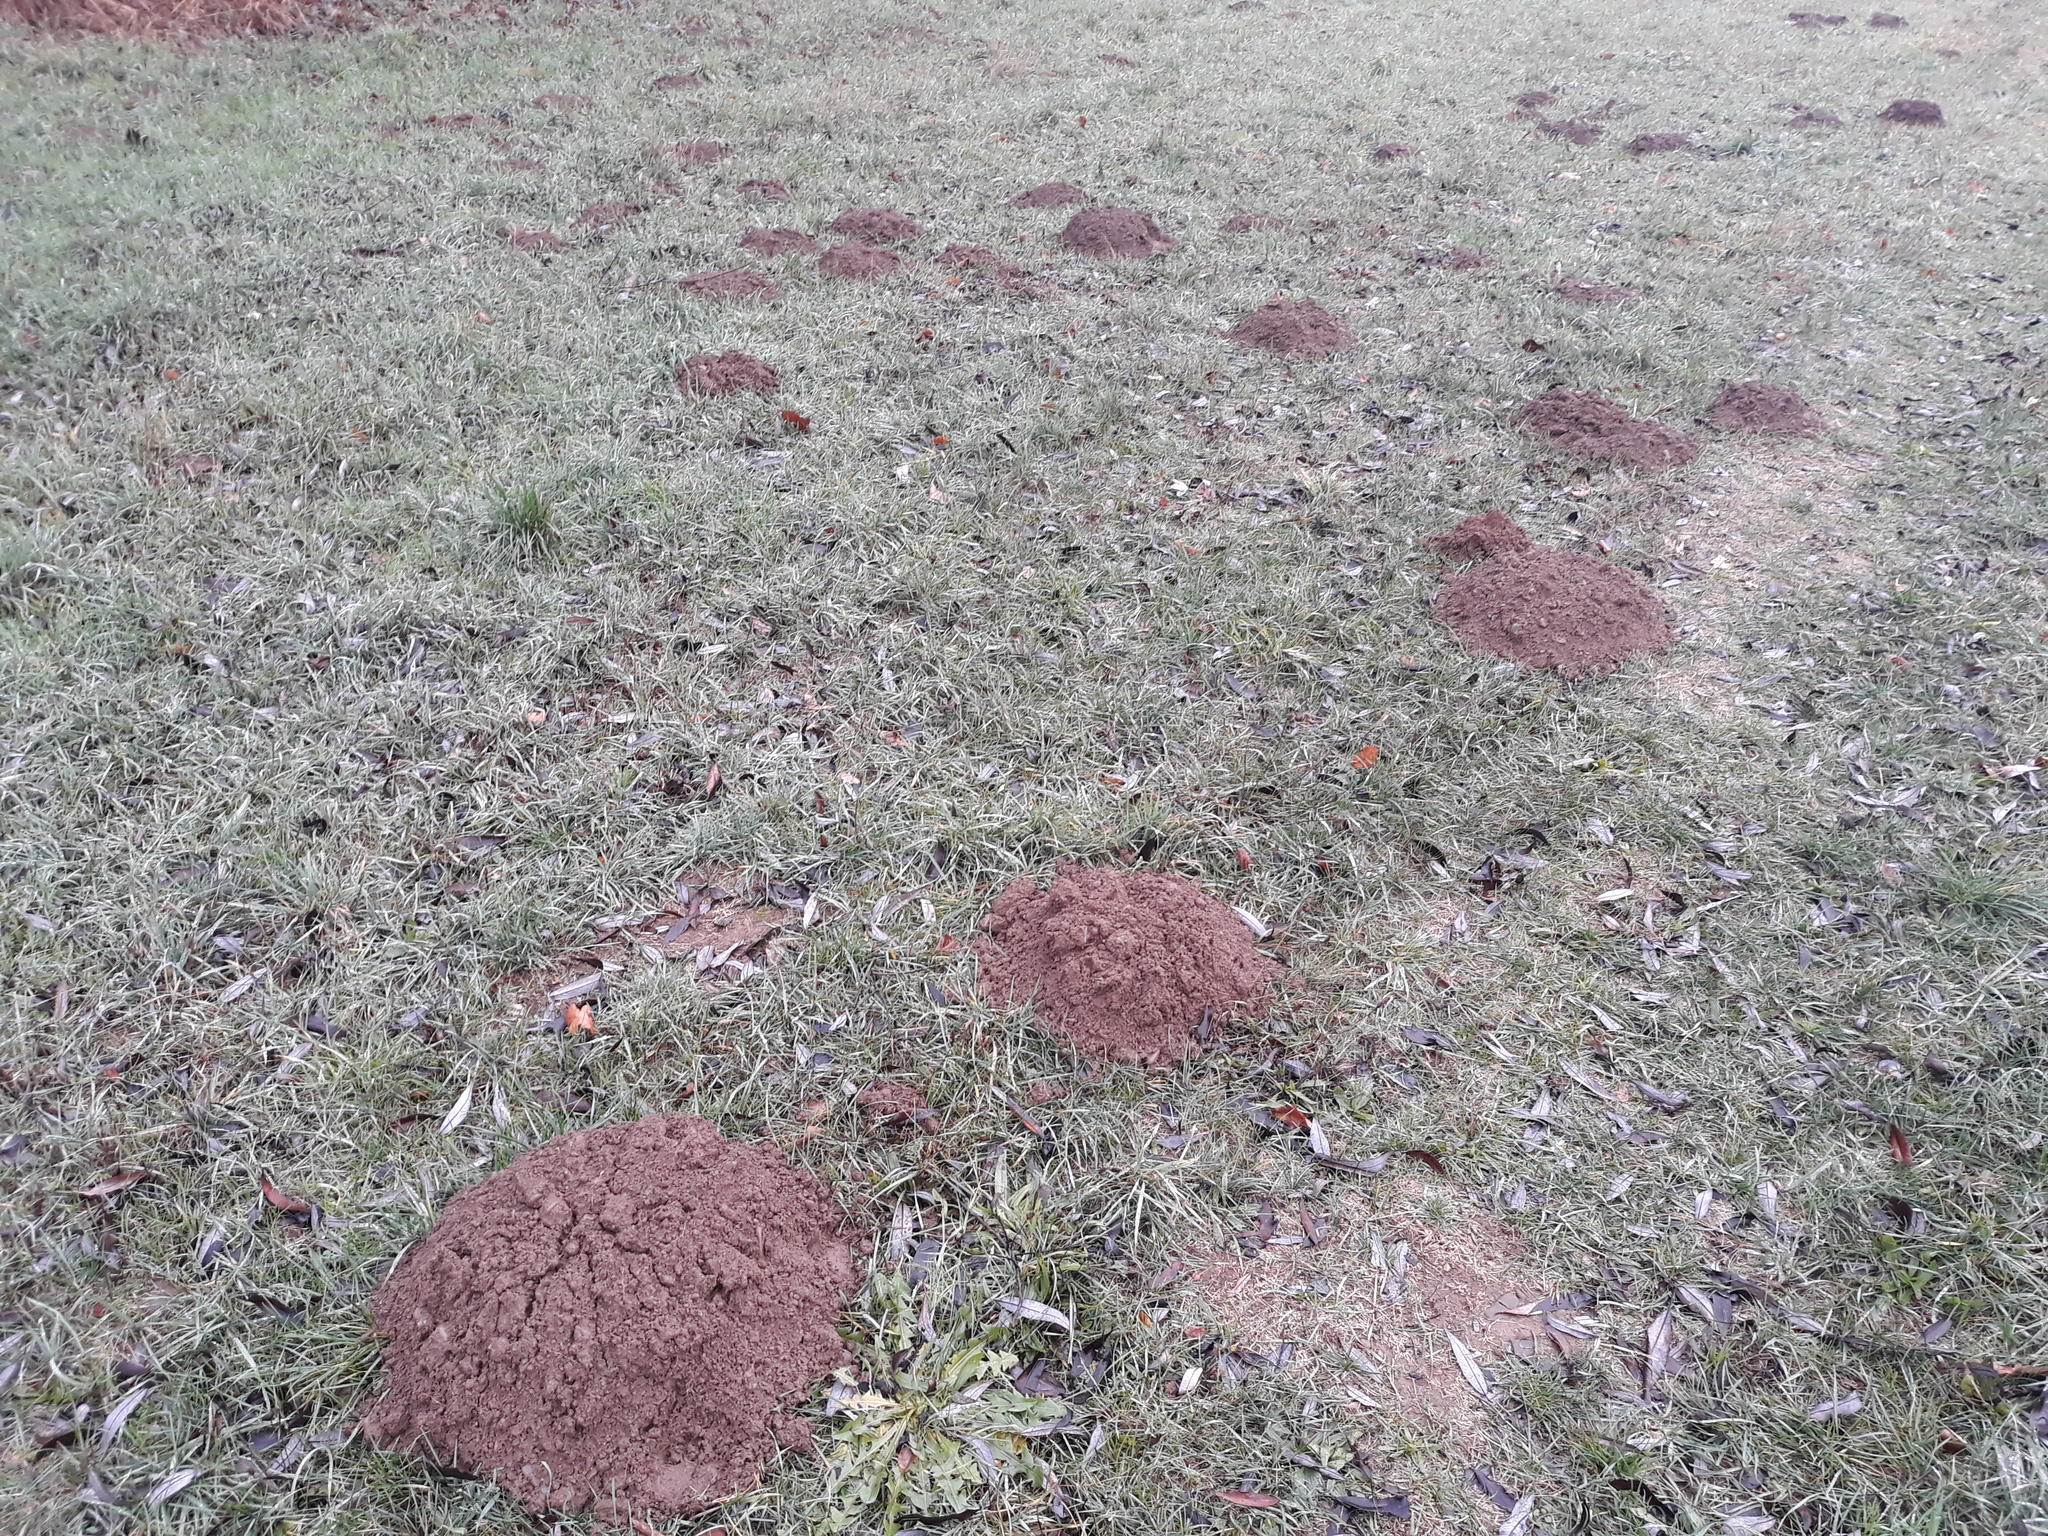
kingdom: Animalia
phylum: Chordata
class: Mammalia
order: Soricomorpha
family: Talpidae
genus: Talpa
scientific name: Talpa europaea
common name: European mole
